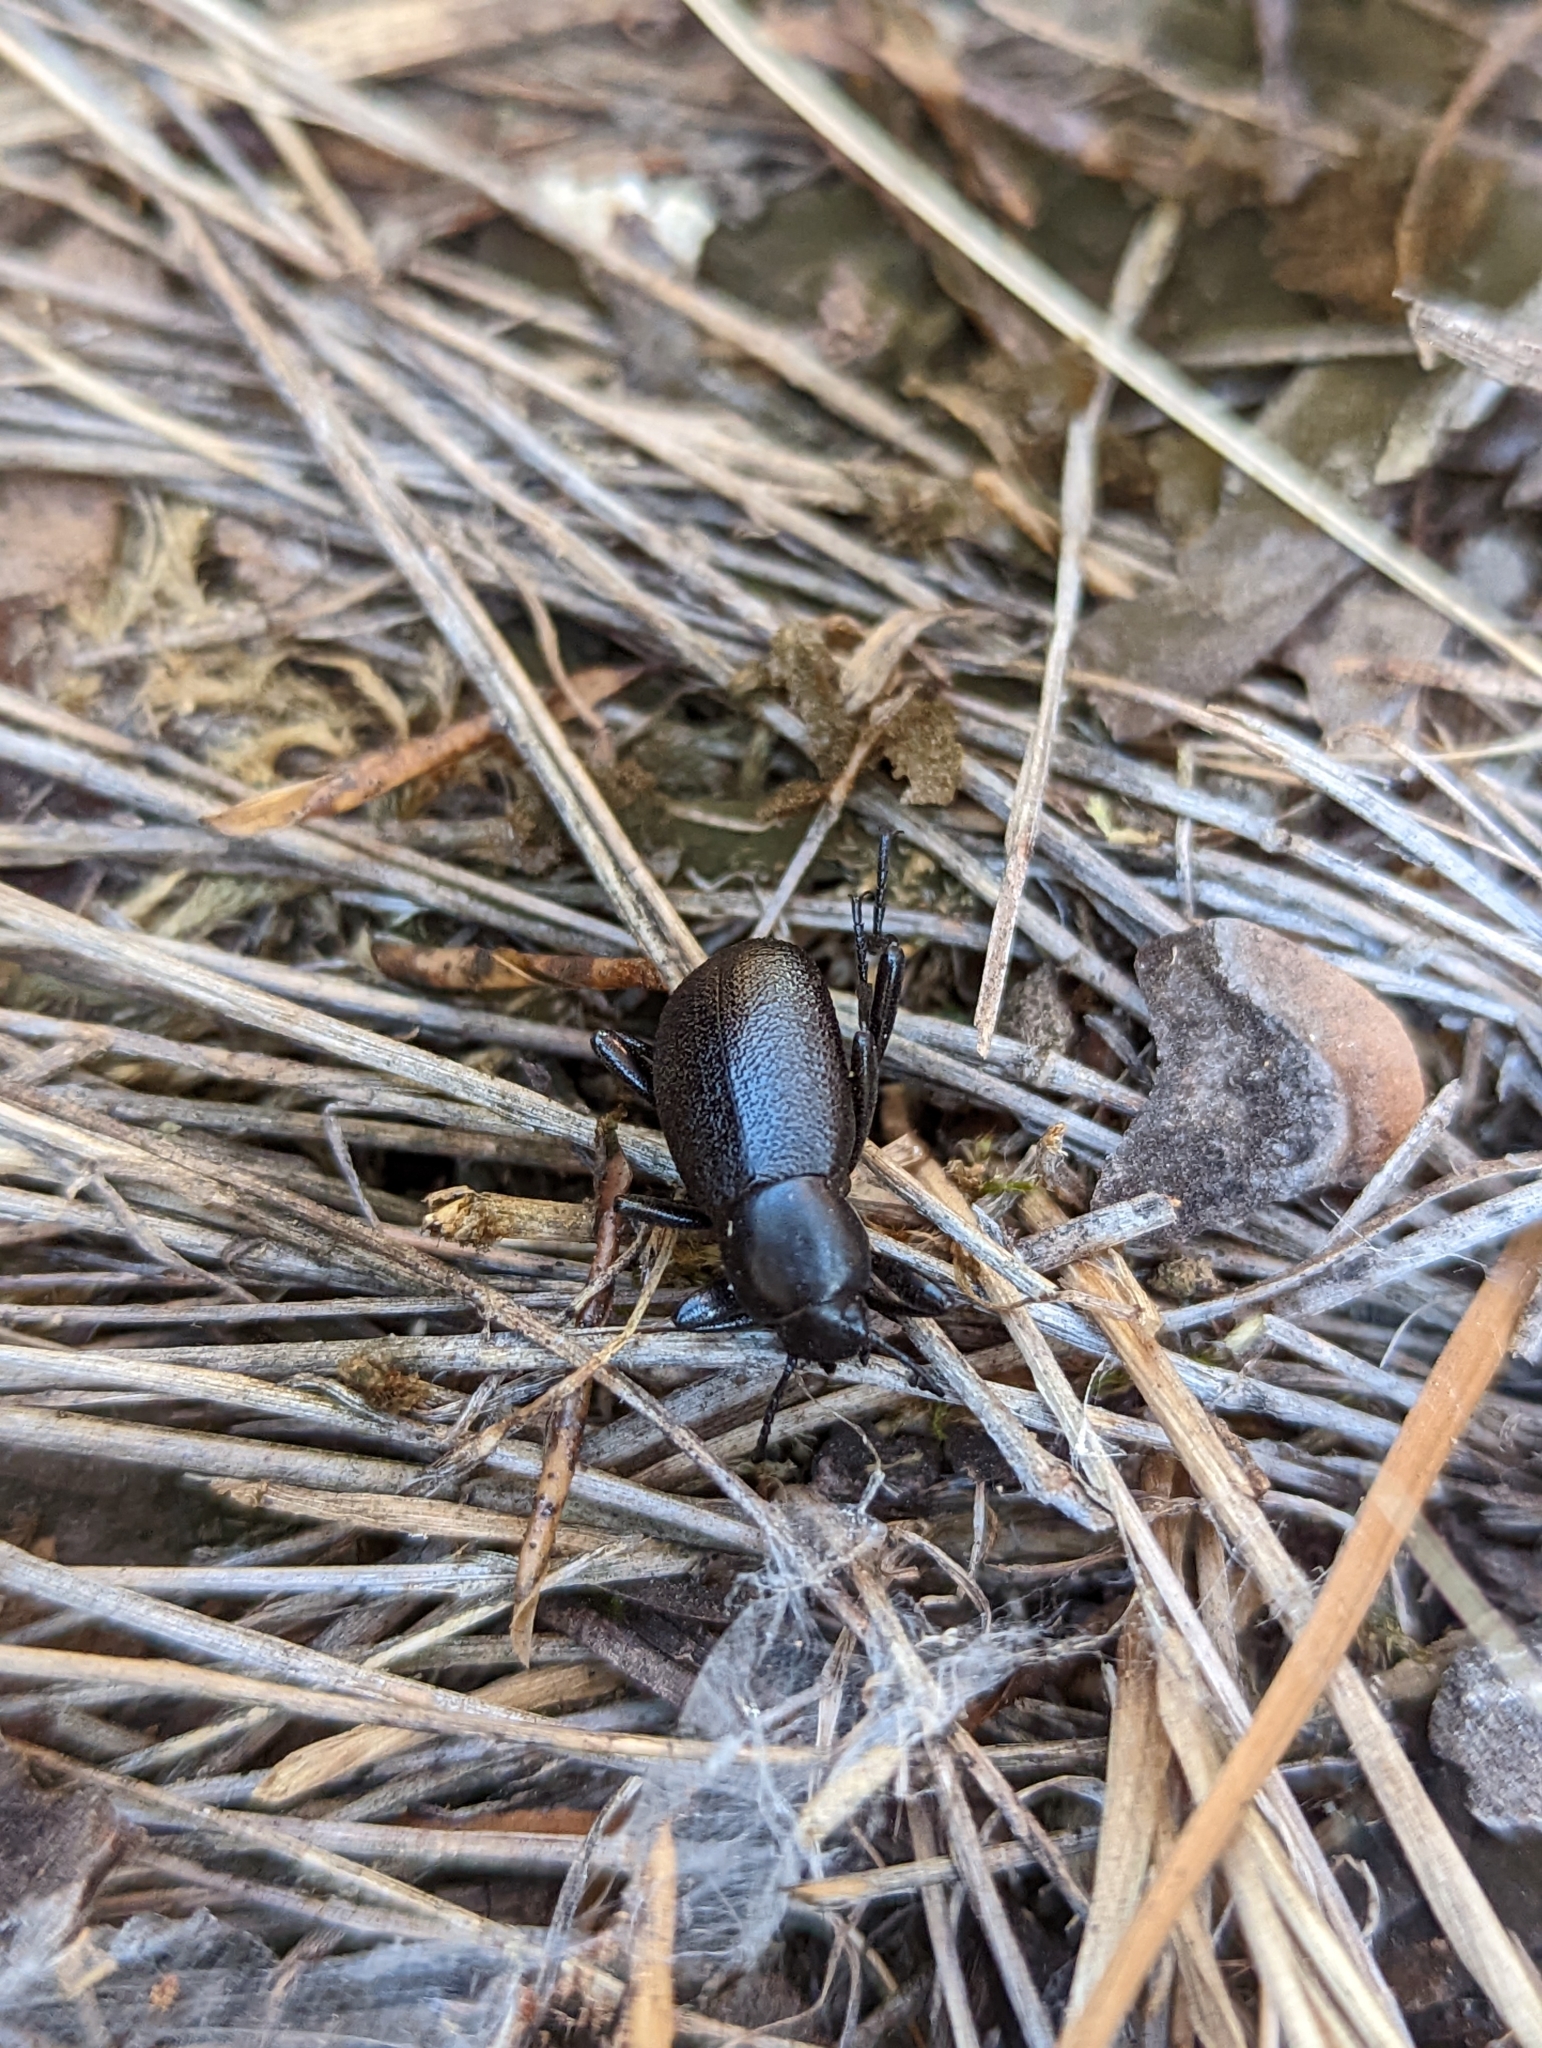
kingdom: Animalia
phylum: Arthropoda
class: Insecta
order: Coleoptera
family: Tenebrionidae
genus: Eleodes
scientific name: Eleodes granulata
